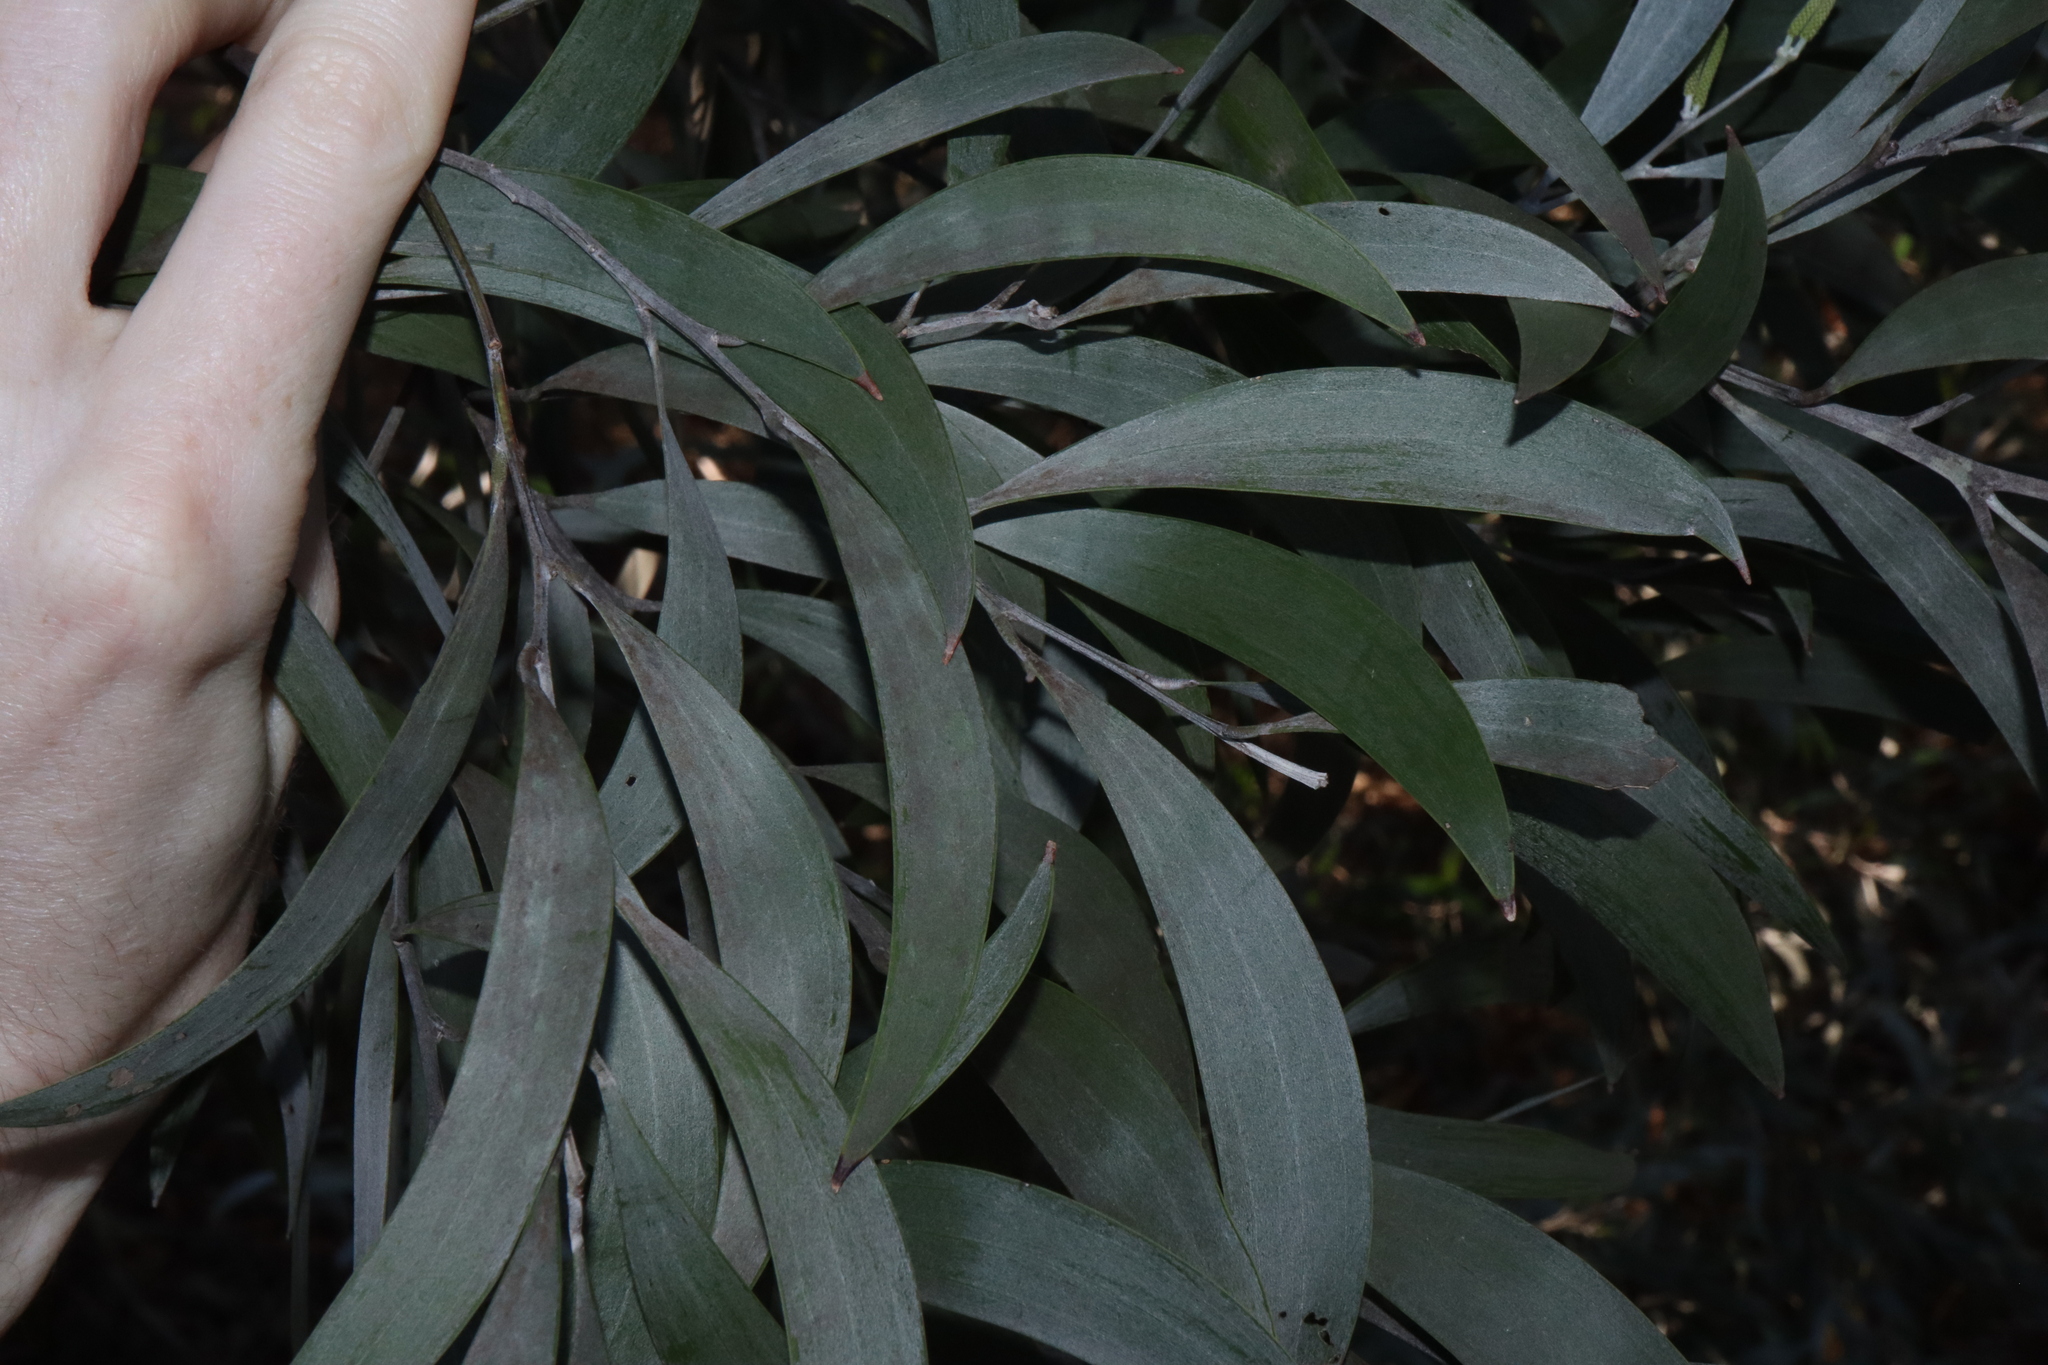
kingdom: Plantae
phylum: Tracheophyta
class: Magnoliopsida
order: Fabales
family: Fabaceae
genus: Acacia
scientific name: Acacia binervia
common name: Coast myall
